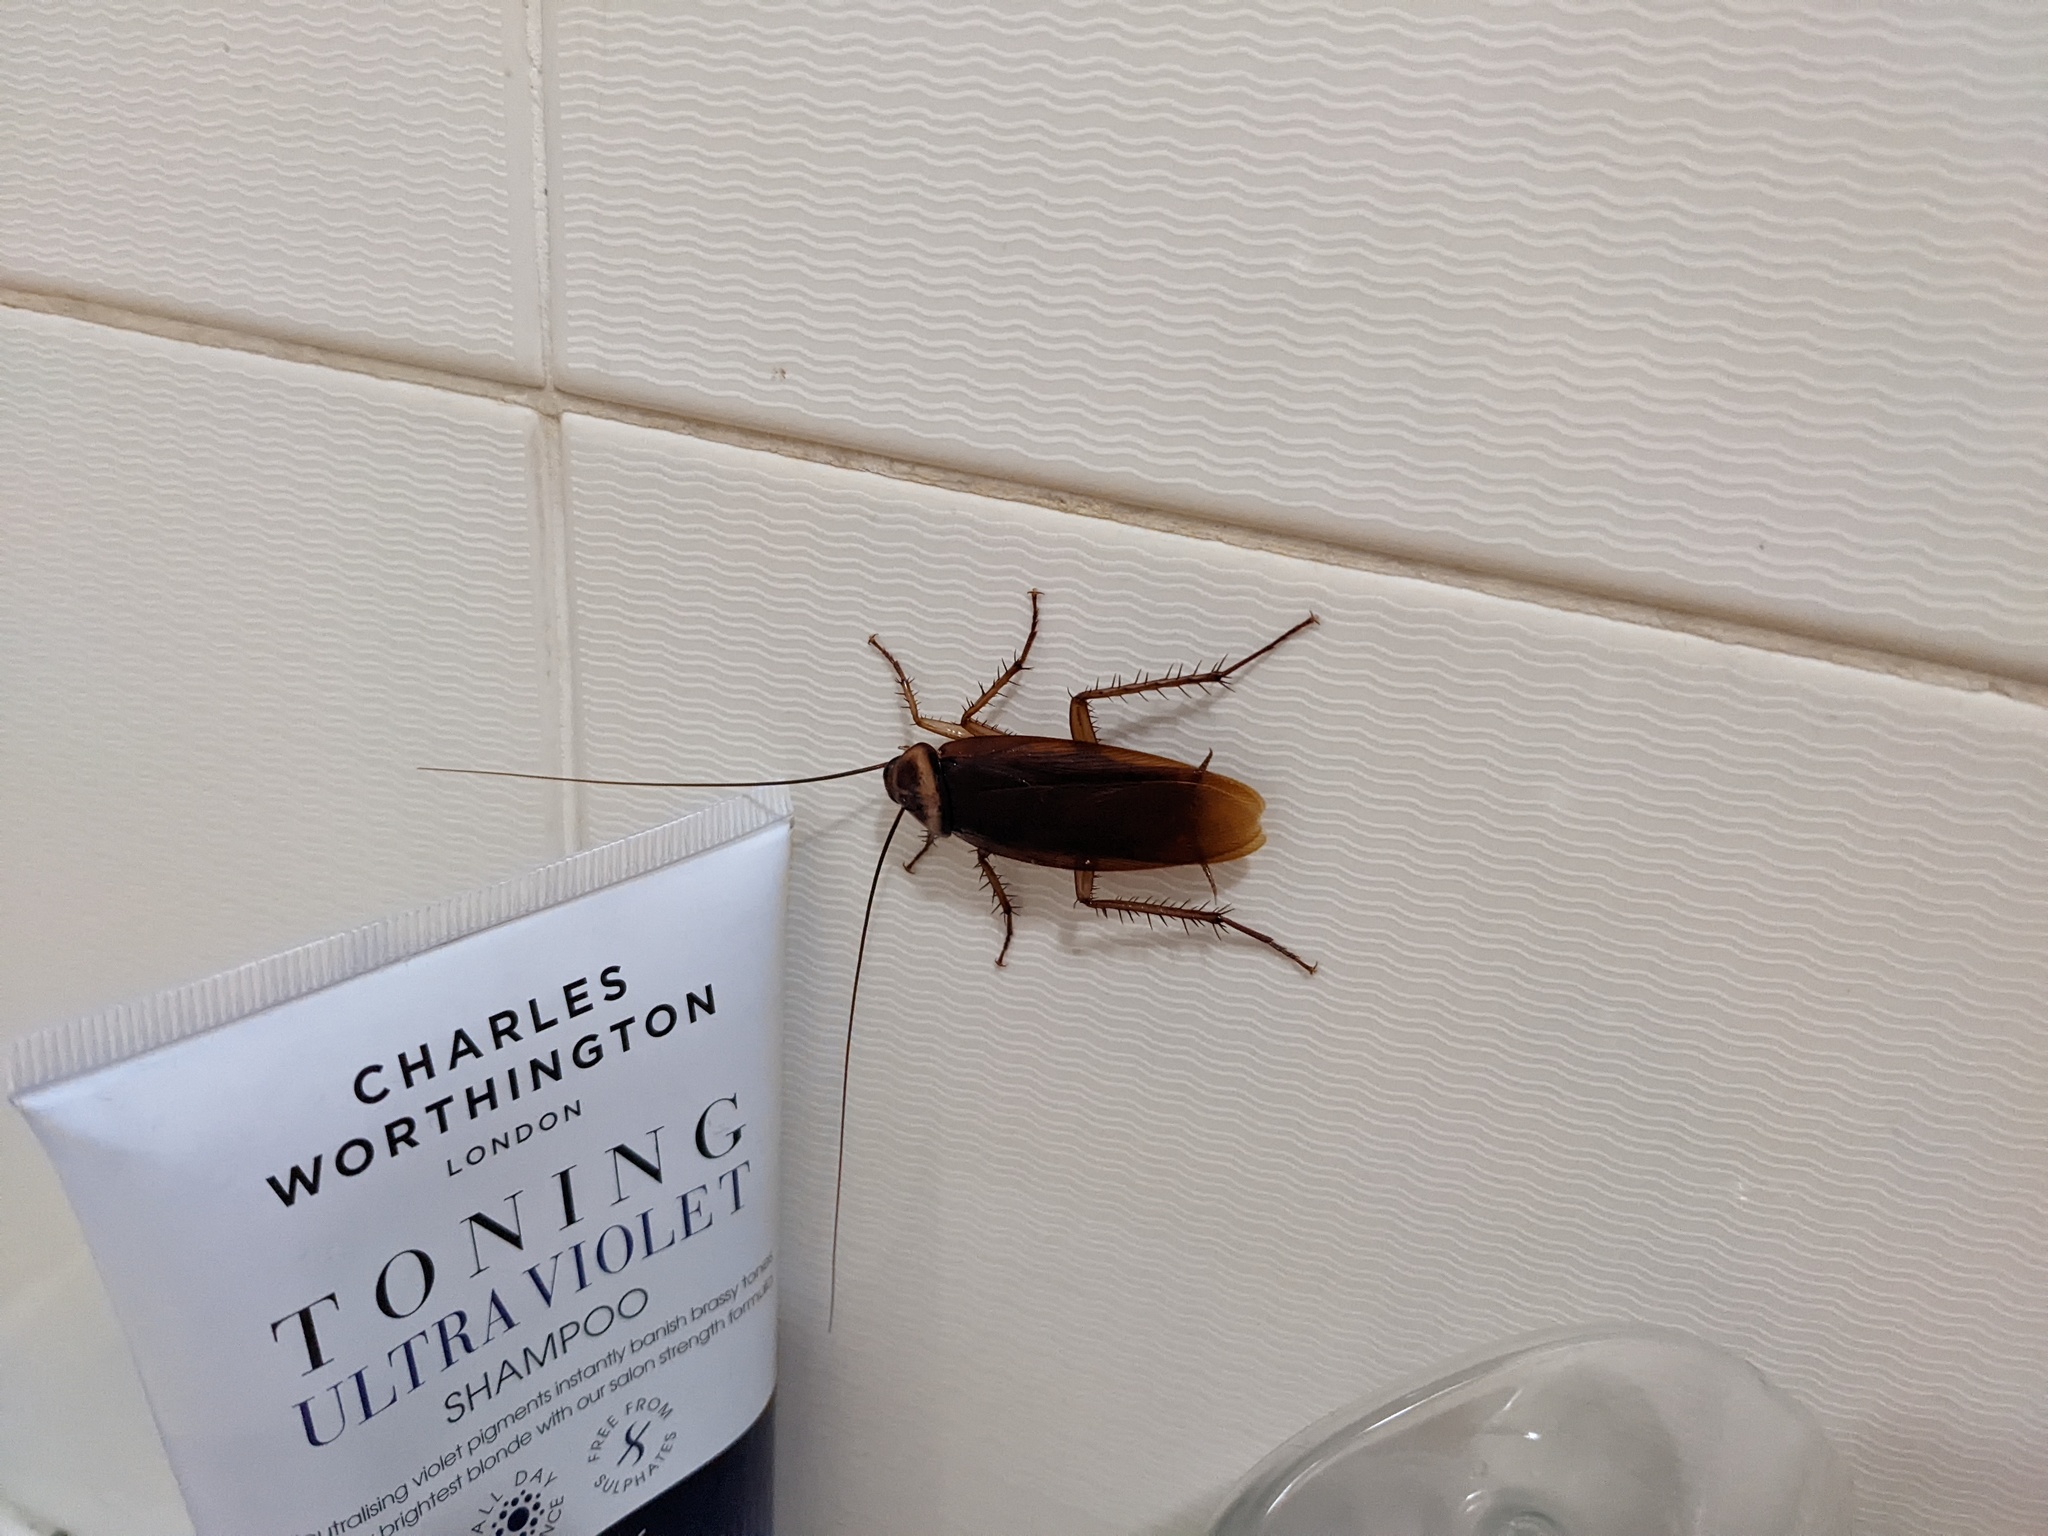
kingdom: Animalia
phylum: Arthropoda
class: Insecta
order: Blattodea
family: Blattidae
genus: Periplaneta
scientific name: Periplaneta americana
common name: American cockroach
